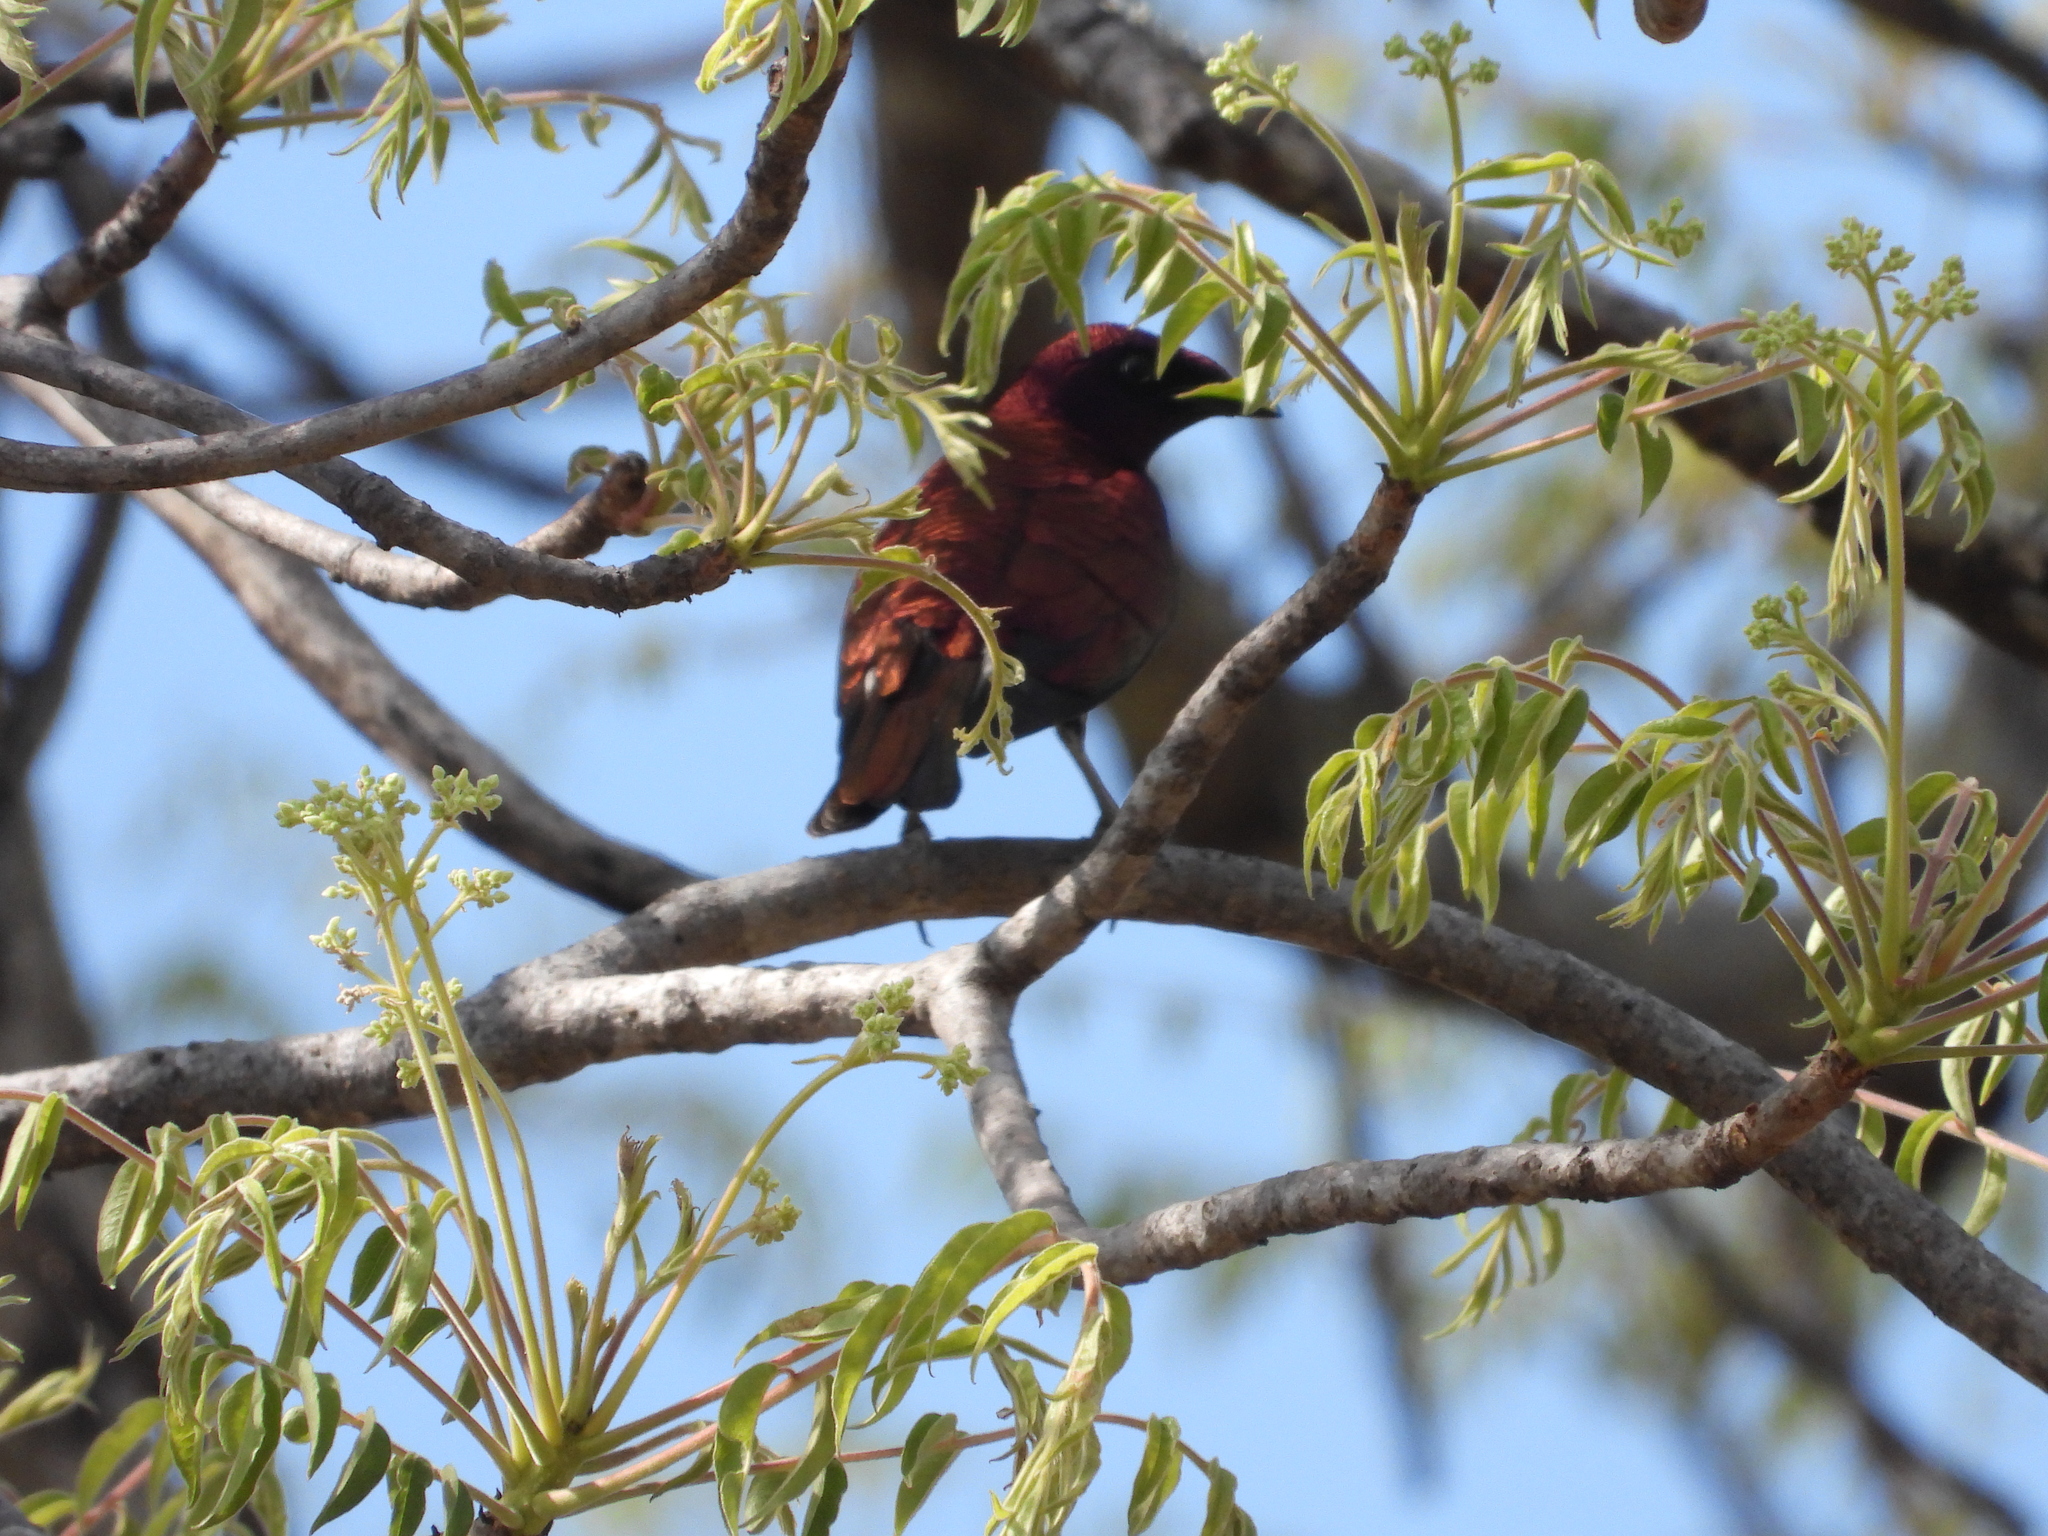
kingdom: Animalia
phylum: Chordata
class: Aves
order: Passeriformes
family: Sturnidae
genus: Cinnyricinclus
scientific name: Cinnyricinclus leucogaster
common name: Violet-backed starling
